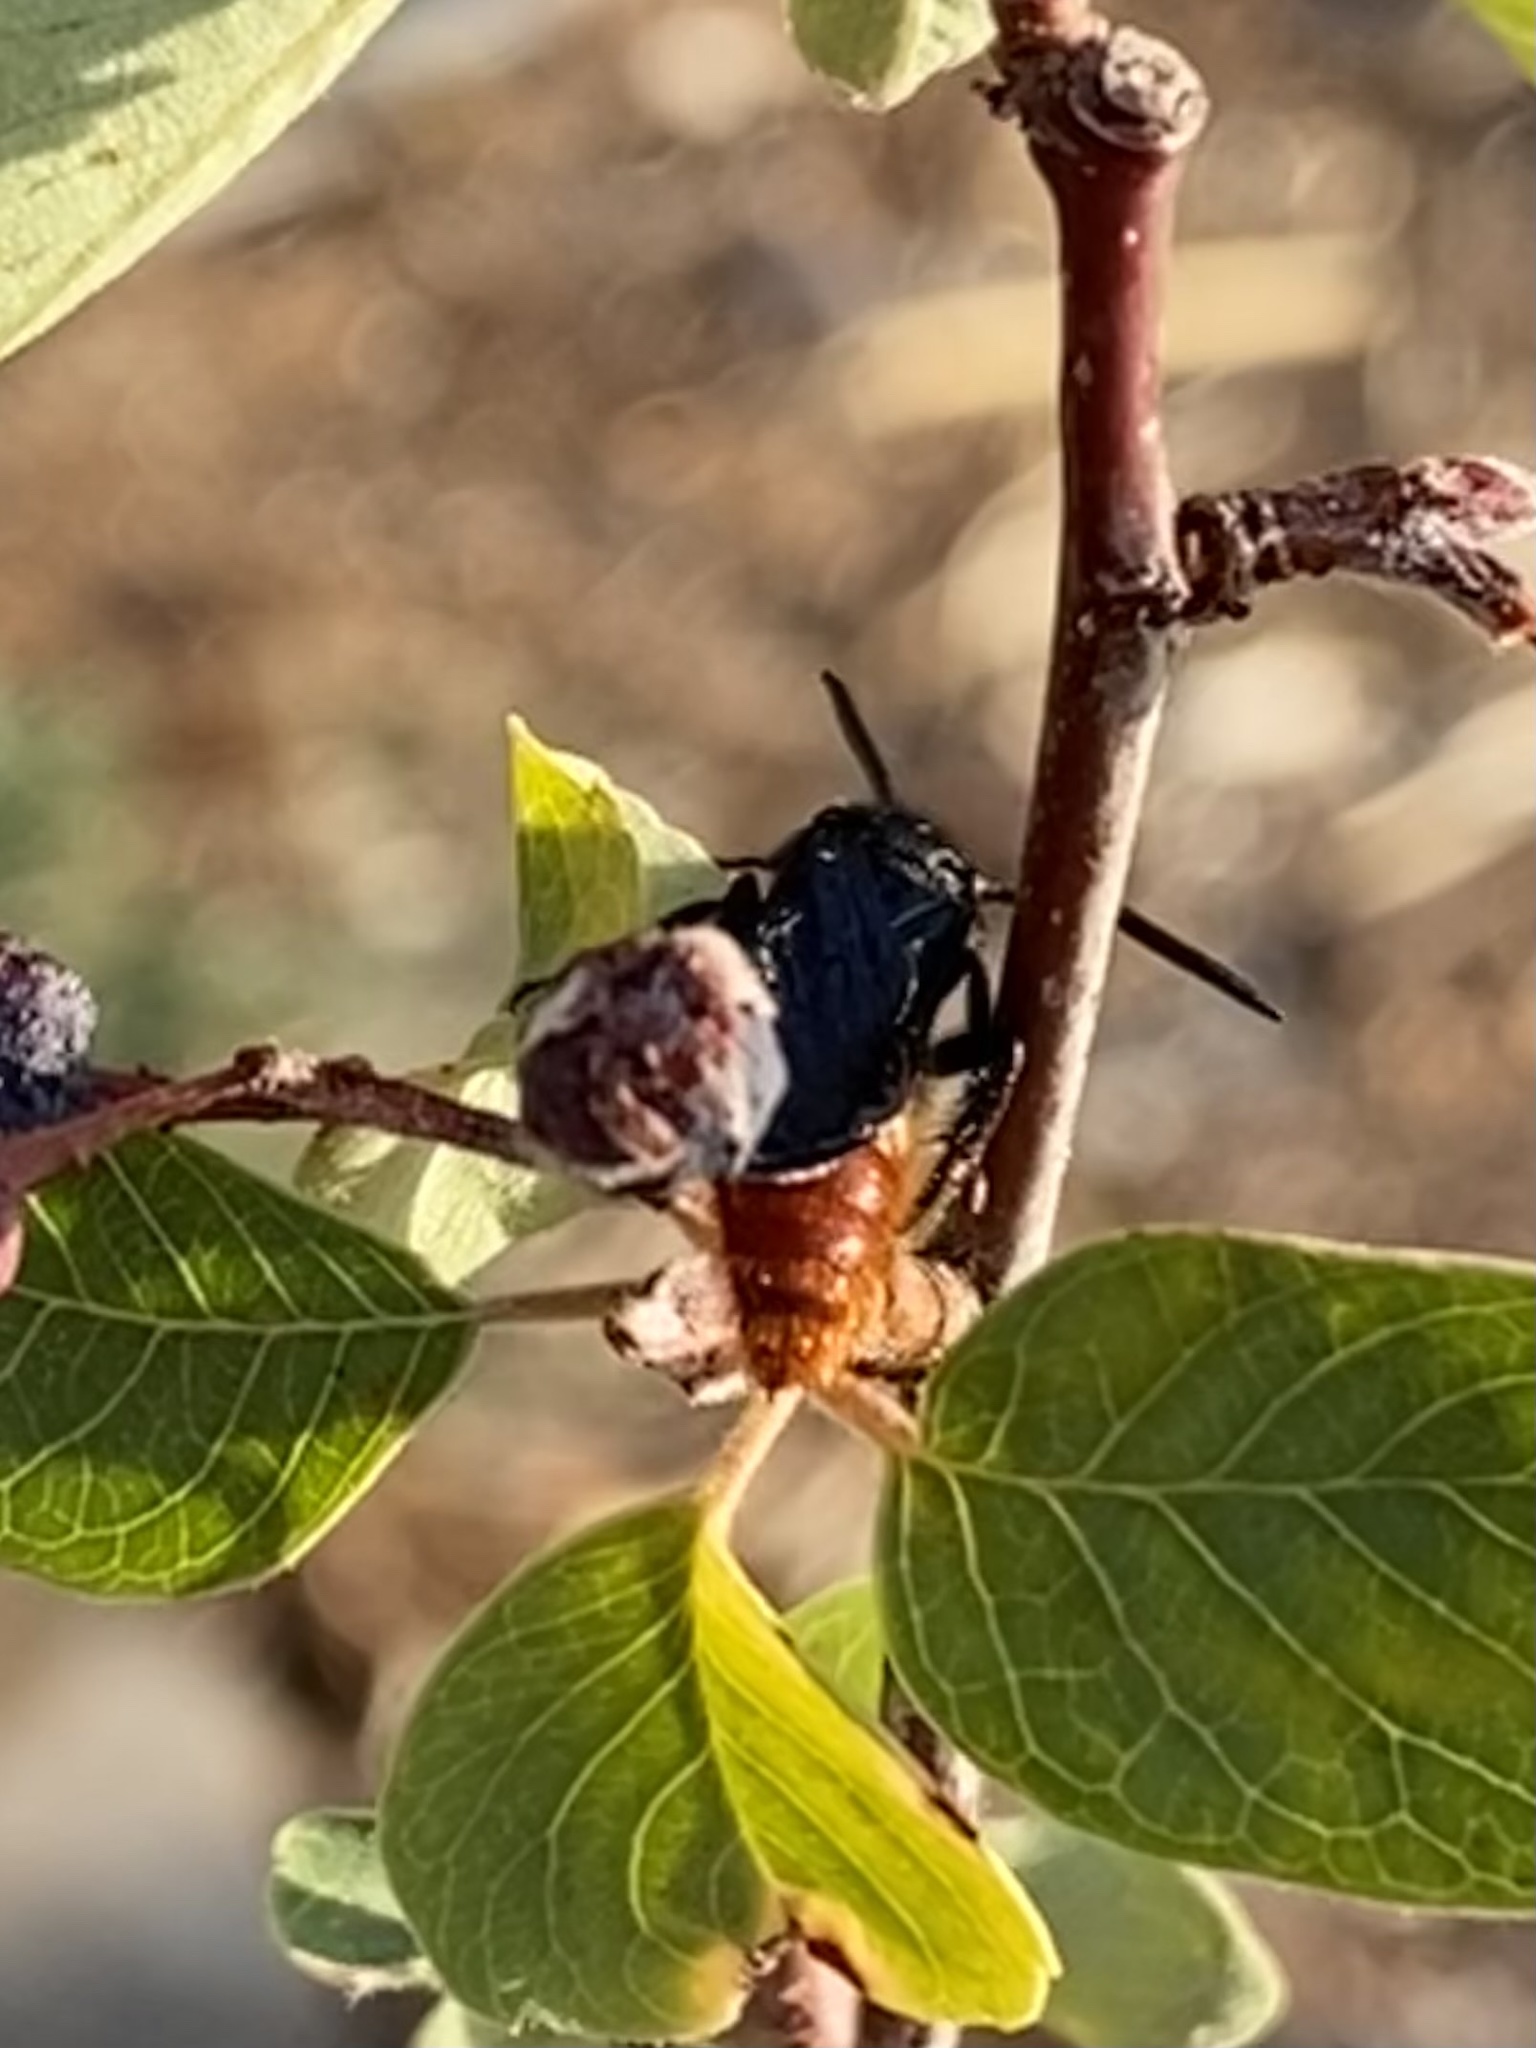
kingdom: Animalia
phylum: Arthropoda
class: Insecta
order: Hymenoptera
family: Scoliidae
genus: Scolia
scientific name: Scolia dubia
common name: Blue-winged scoliid wasp
